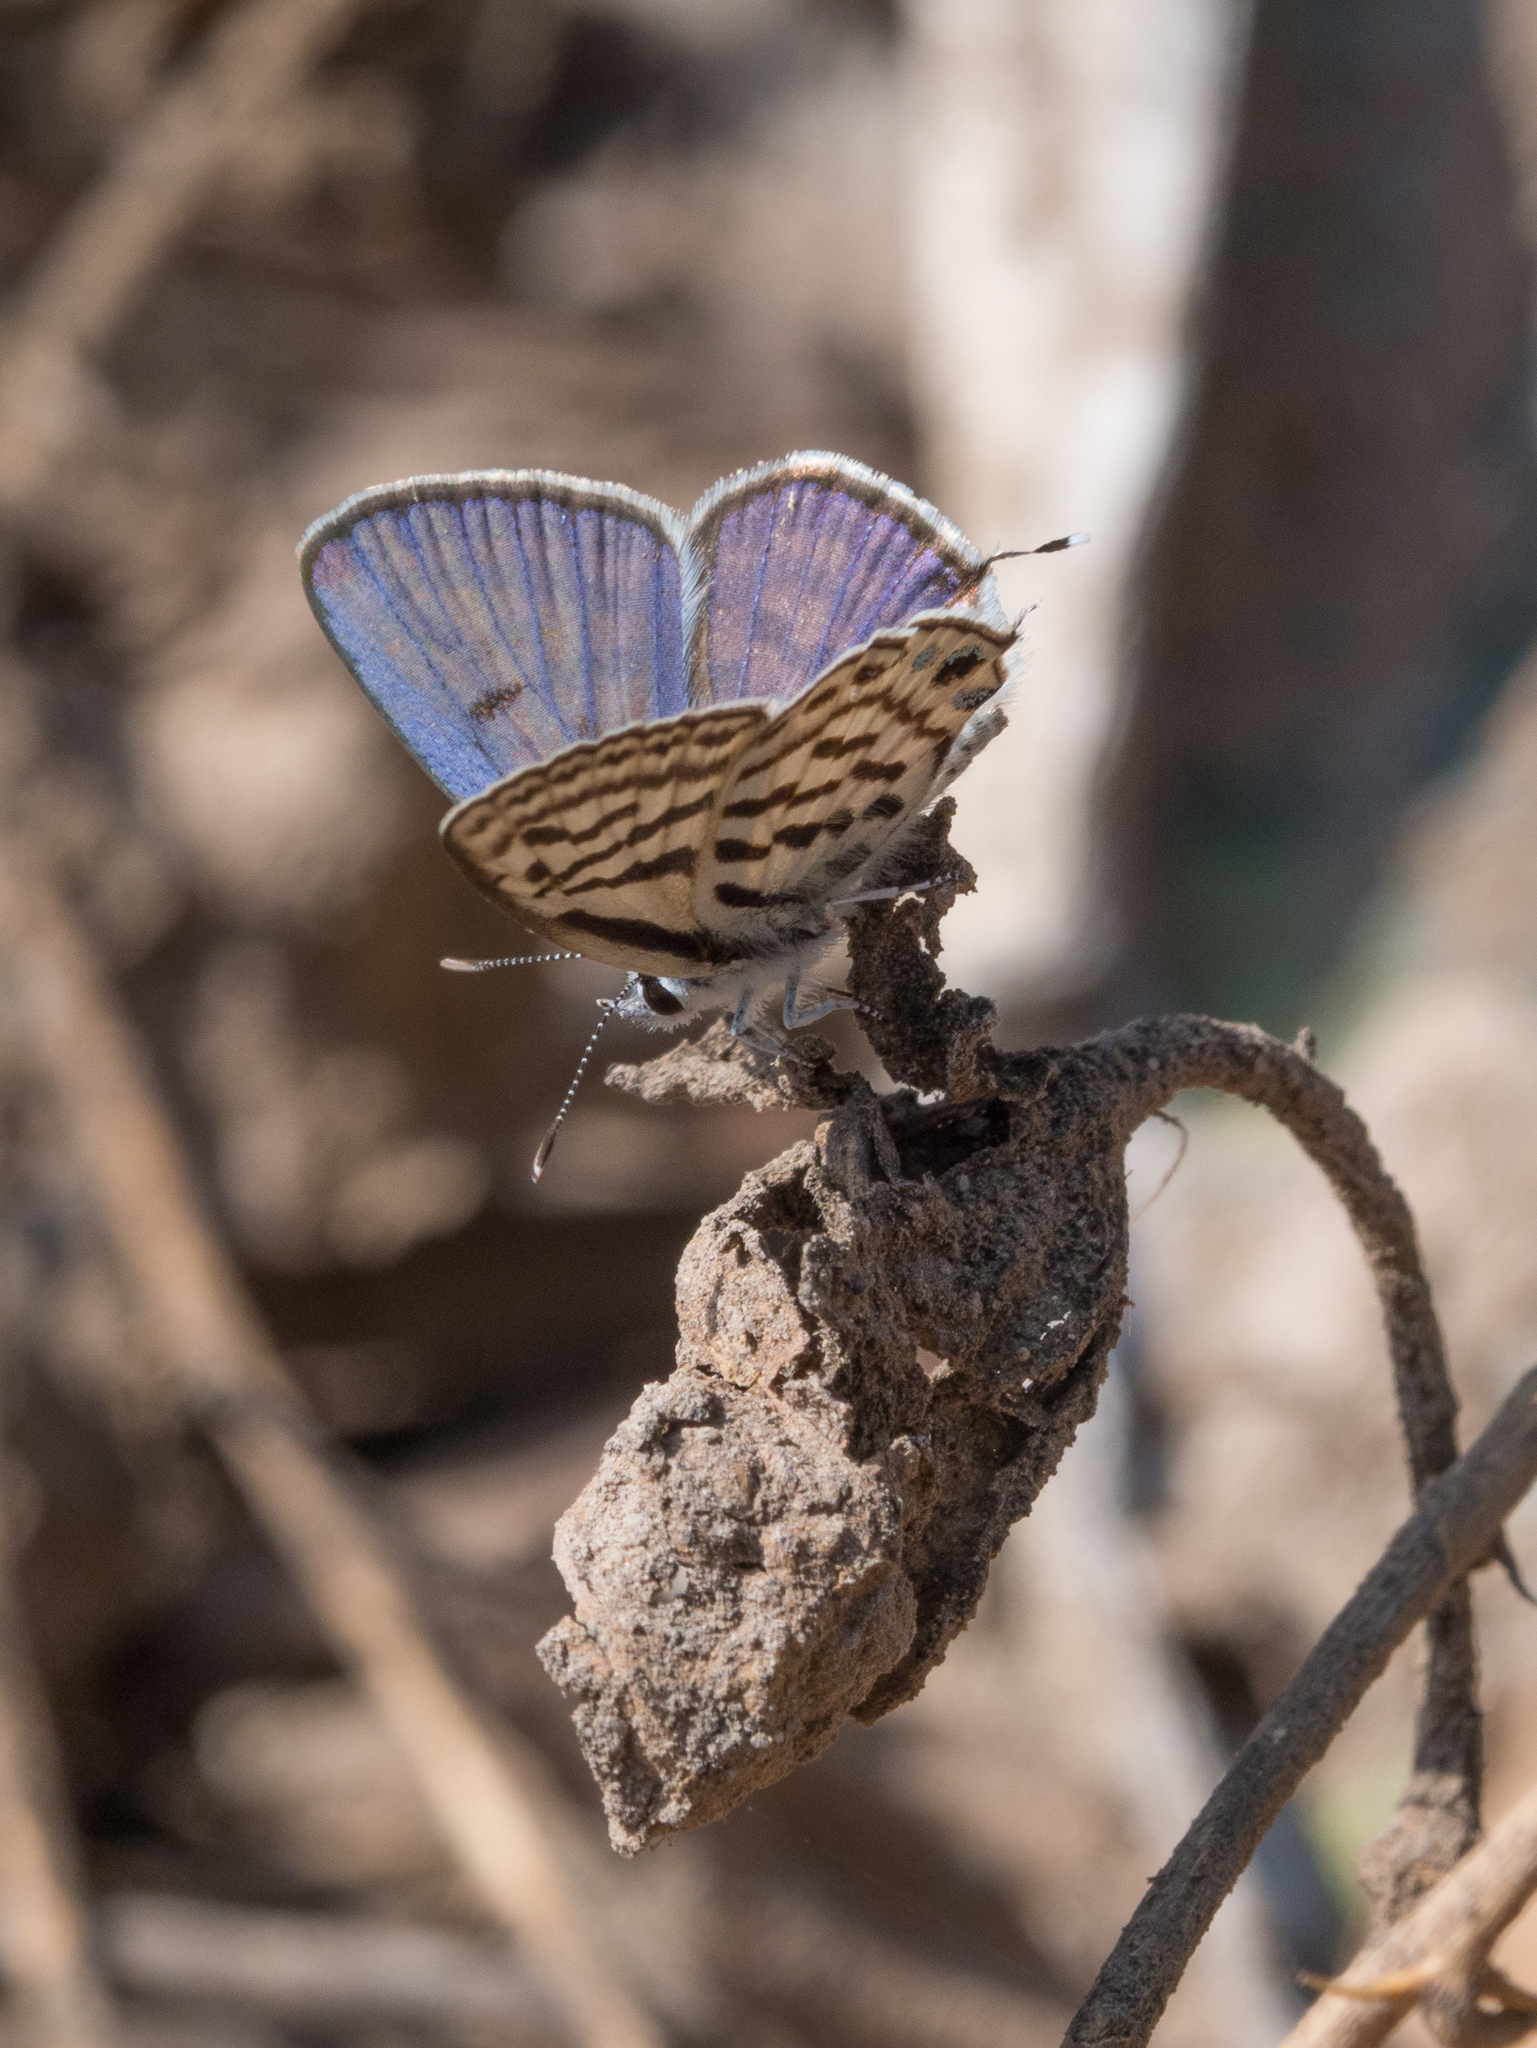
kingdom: Animalia
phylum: Arthropoda
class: Insecta
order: Lepidoptera
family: Lycaenidae
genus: Tarucus
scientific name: Tarucus rosacea
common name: Mediterranean pierrot
